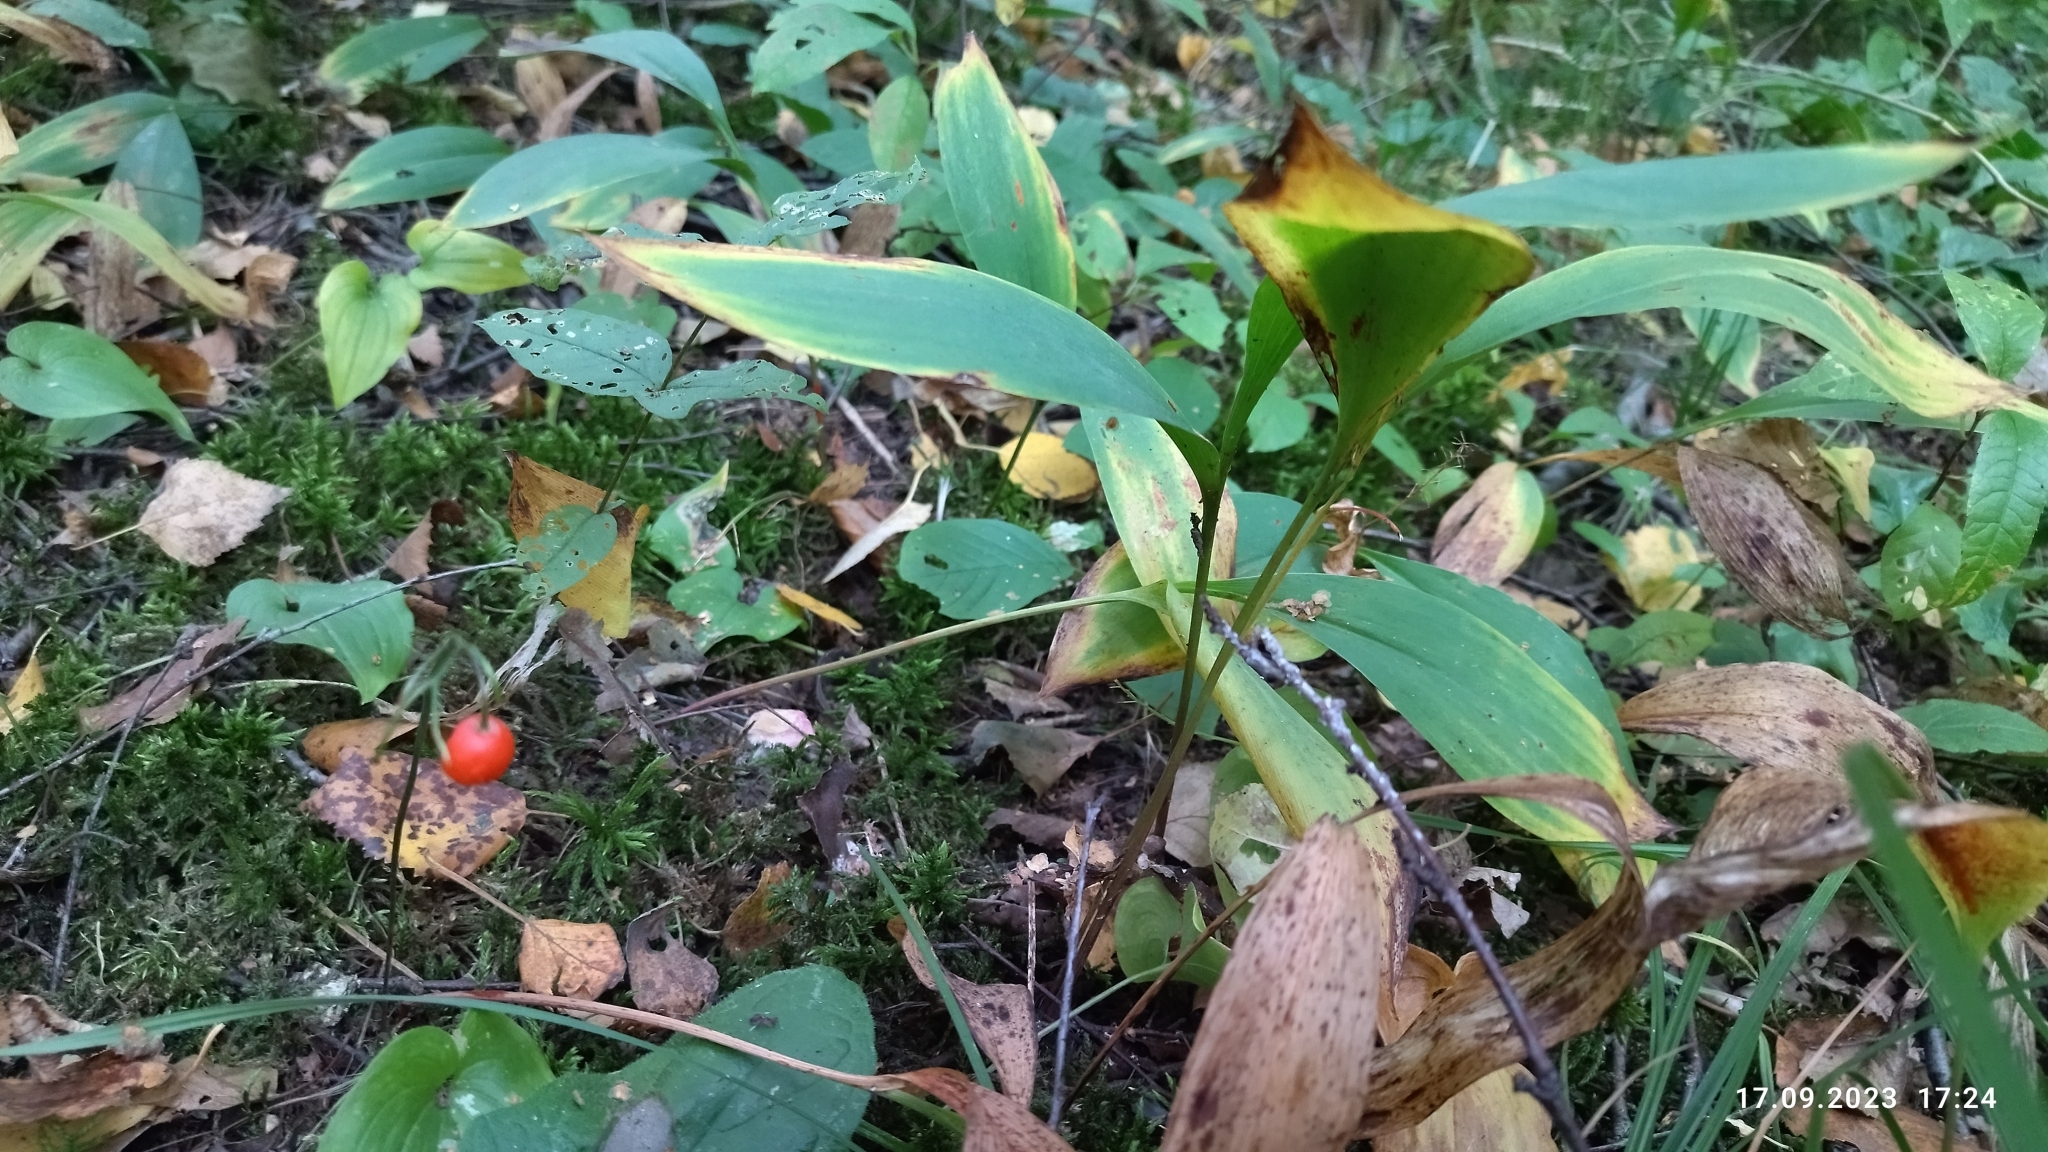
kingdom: Plantae
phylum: Tracheophyta
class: Liliopsida
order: Asparagales
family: Asparagaceae
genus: Convallaria
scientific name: Convallaria majalis
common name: Lily-of-the-valley
